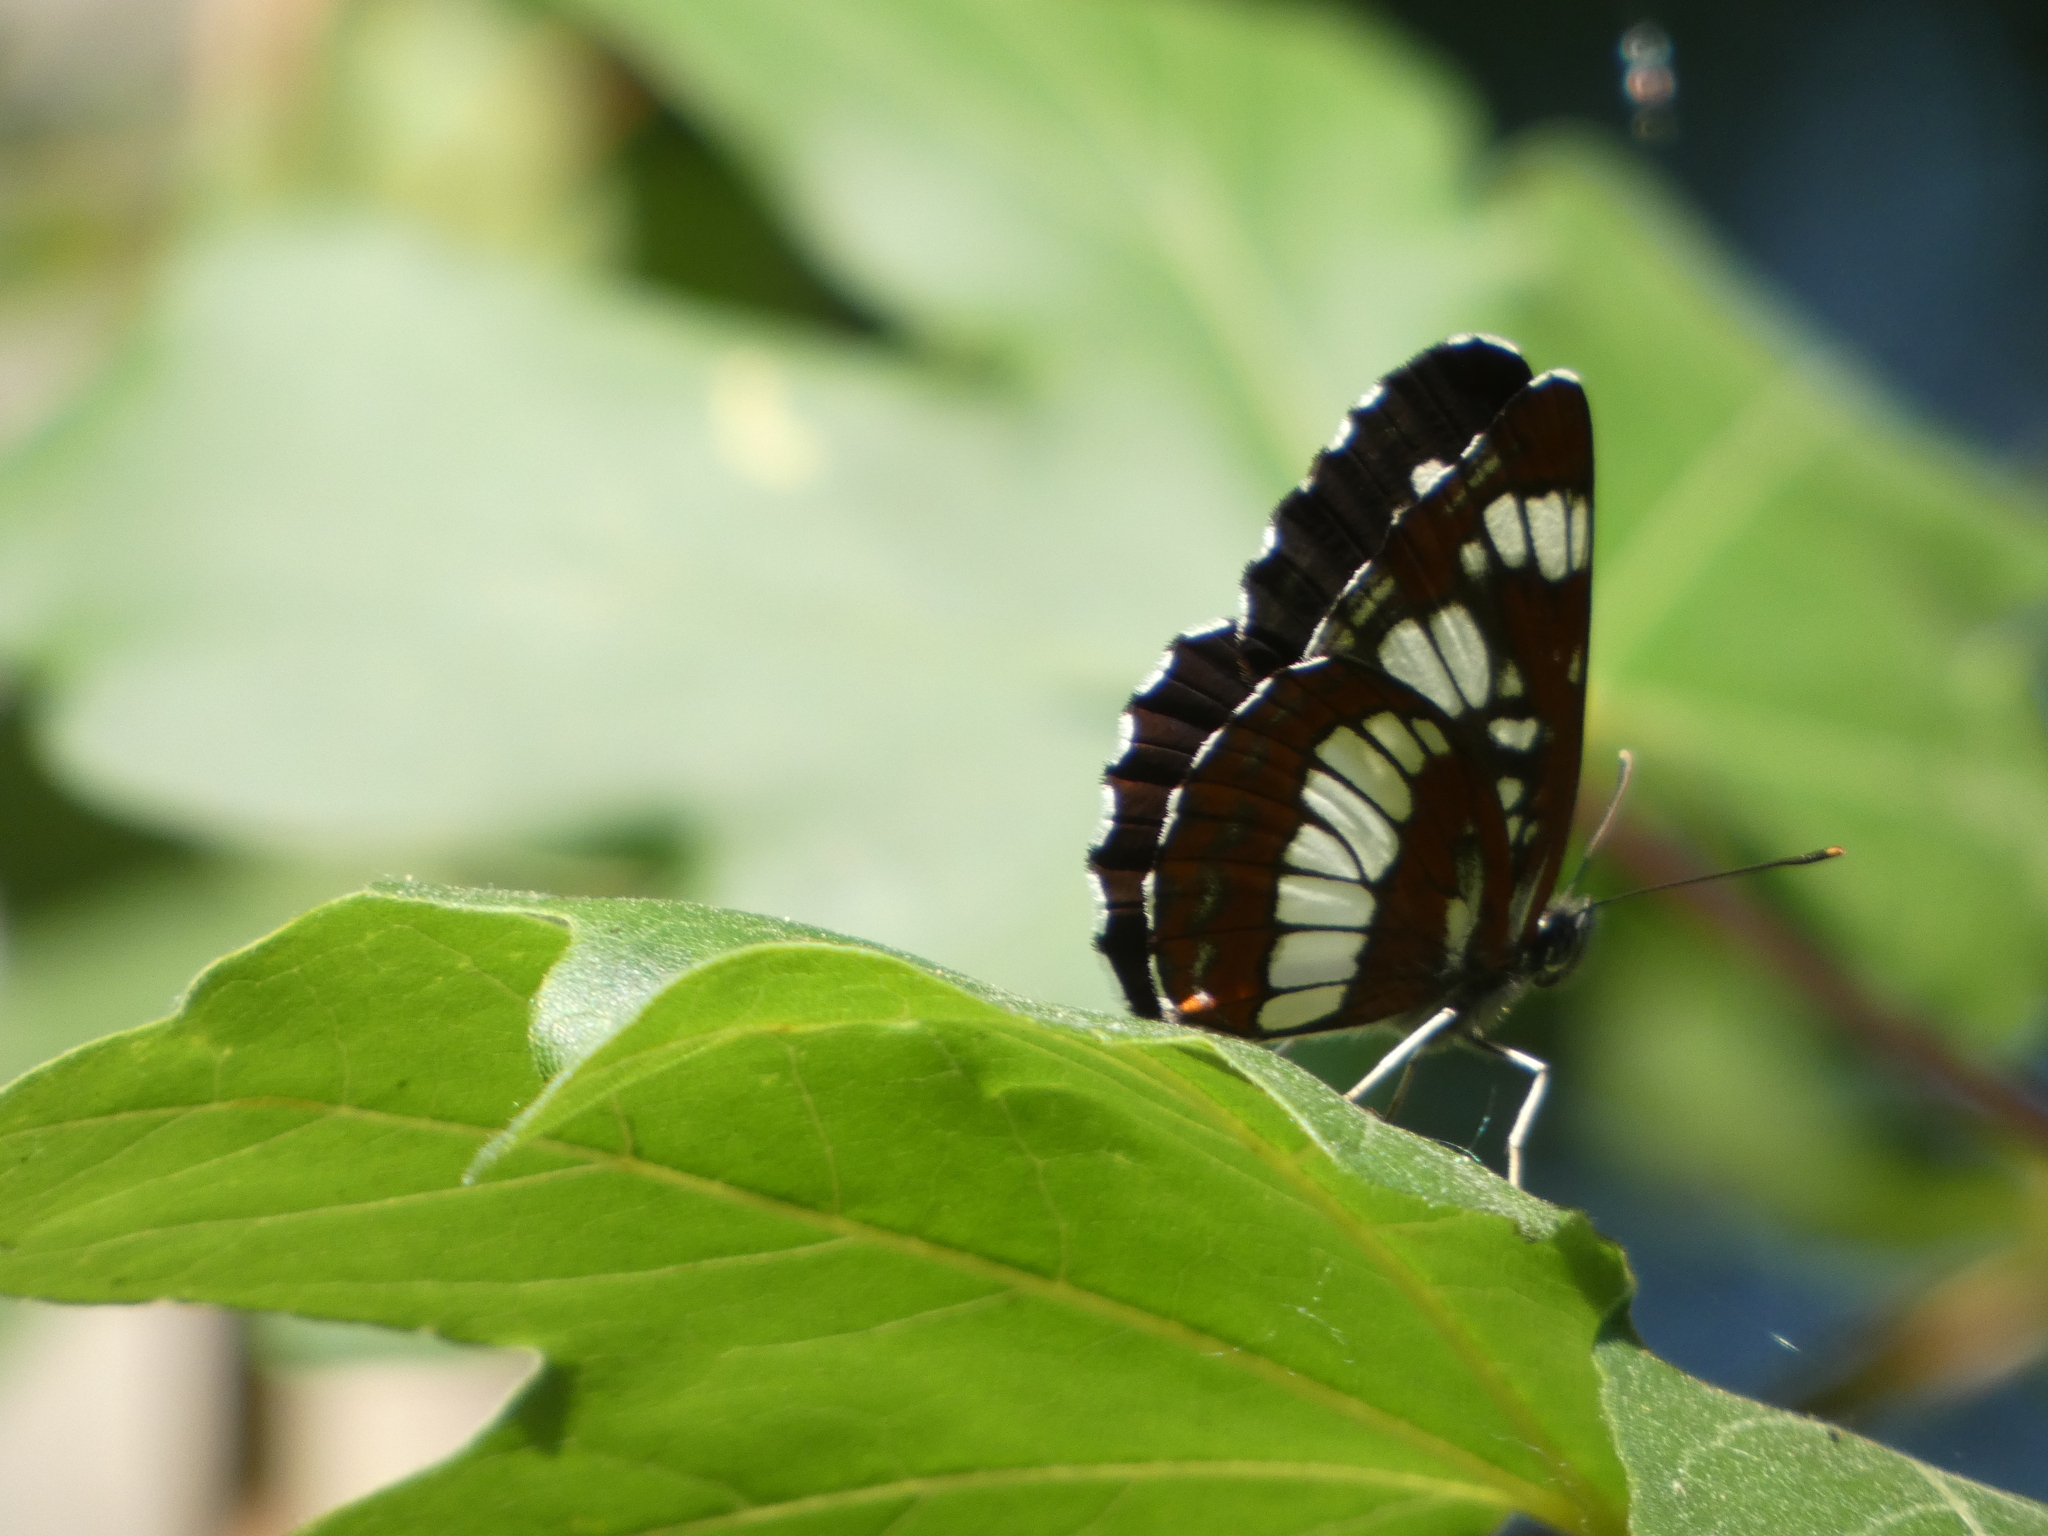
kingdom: Animalia
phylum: Arthropoda
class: Insecta
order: Lepidoptera
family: Nymphalidae
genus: Neptis
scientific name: Neptis rivularis
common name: Hungarian glider
